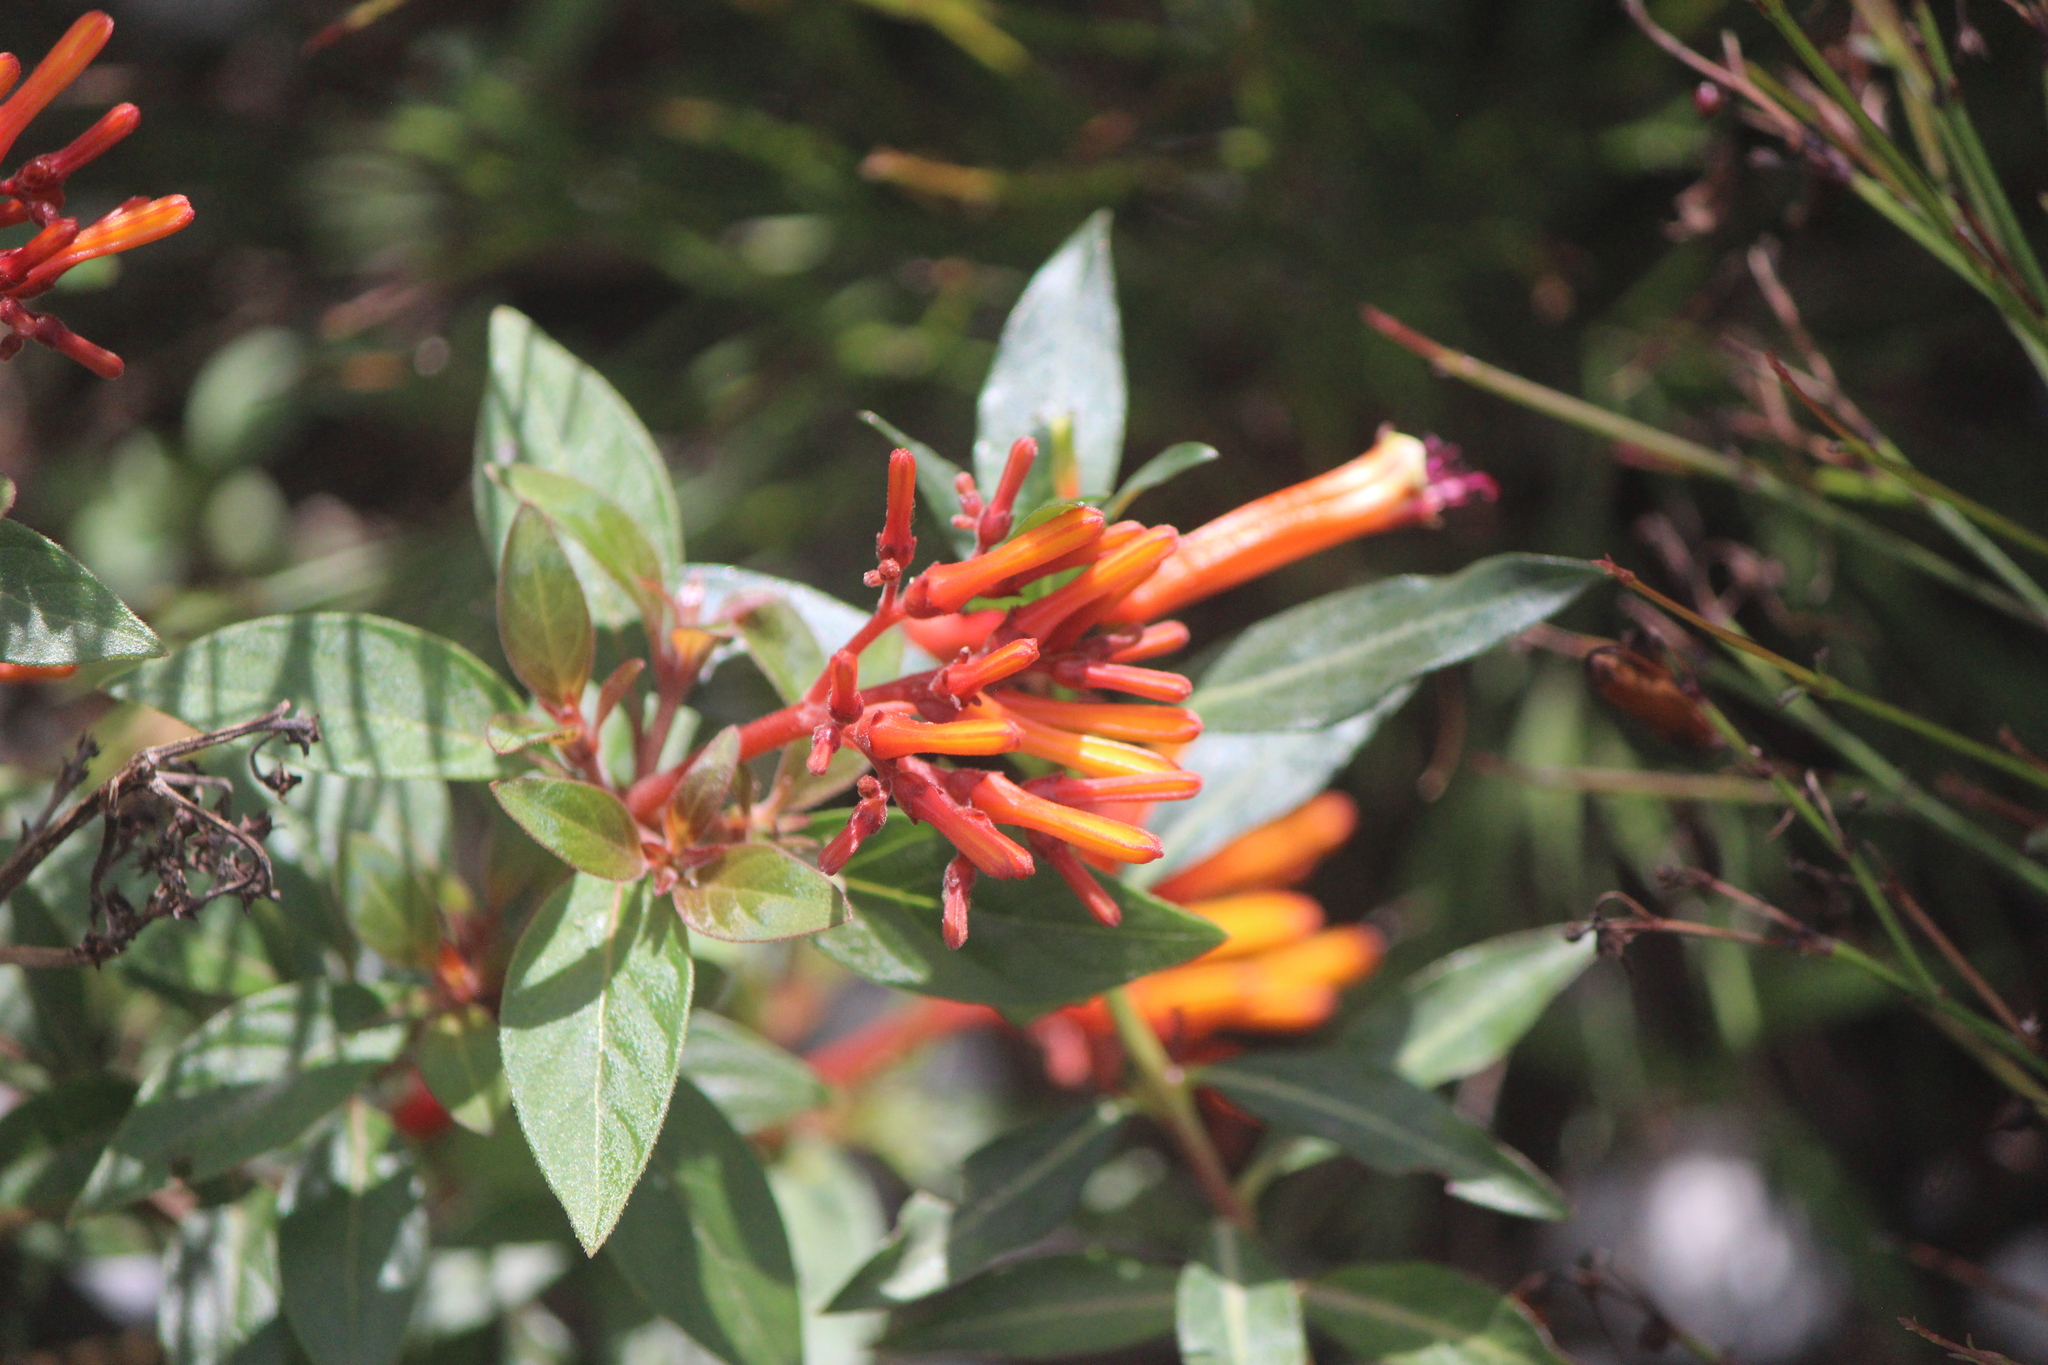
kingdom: Plantae
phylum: Tracheophyta
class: Magnoliopsida
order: Gentianales
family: Rubiaceae
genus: Hamelia
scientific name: Hamelia patens
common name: Redhead
